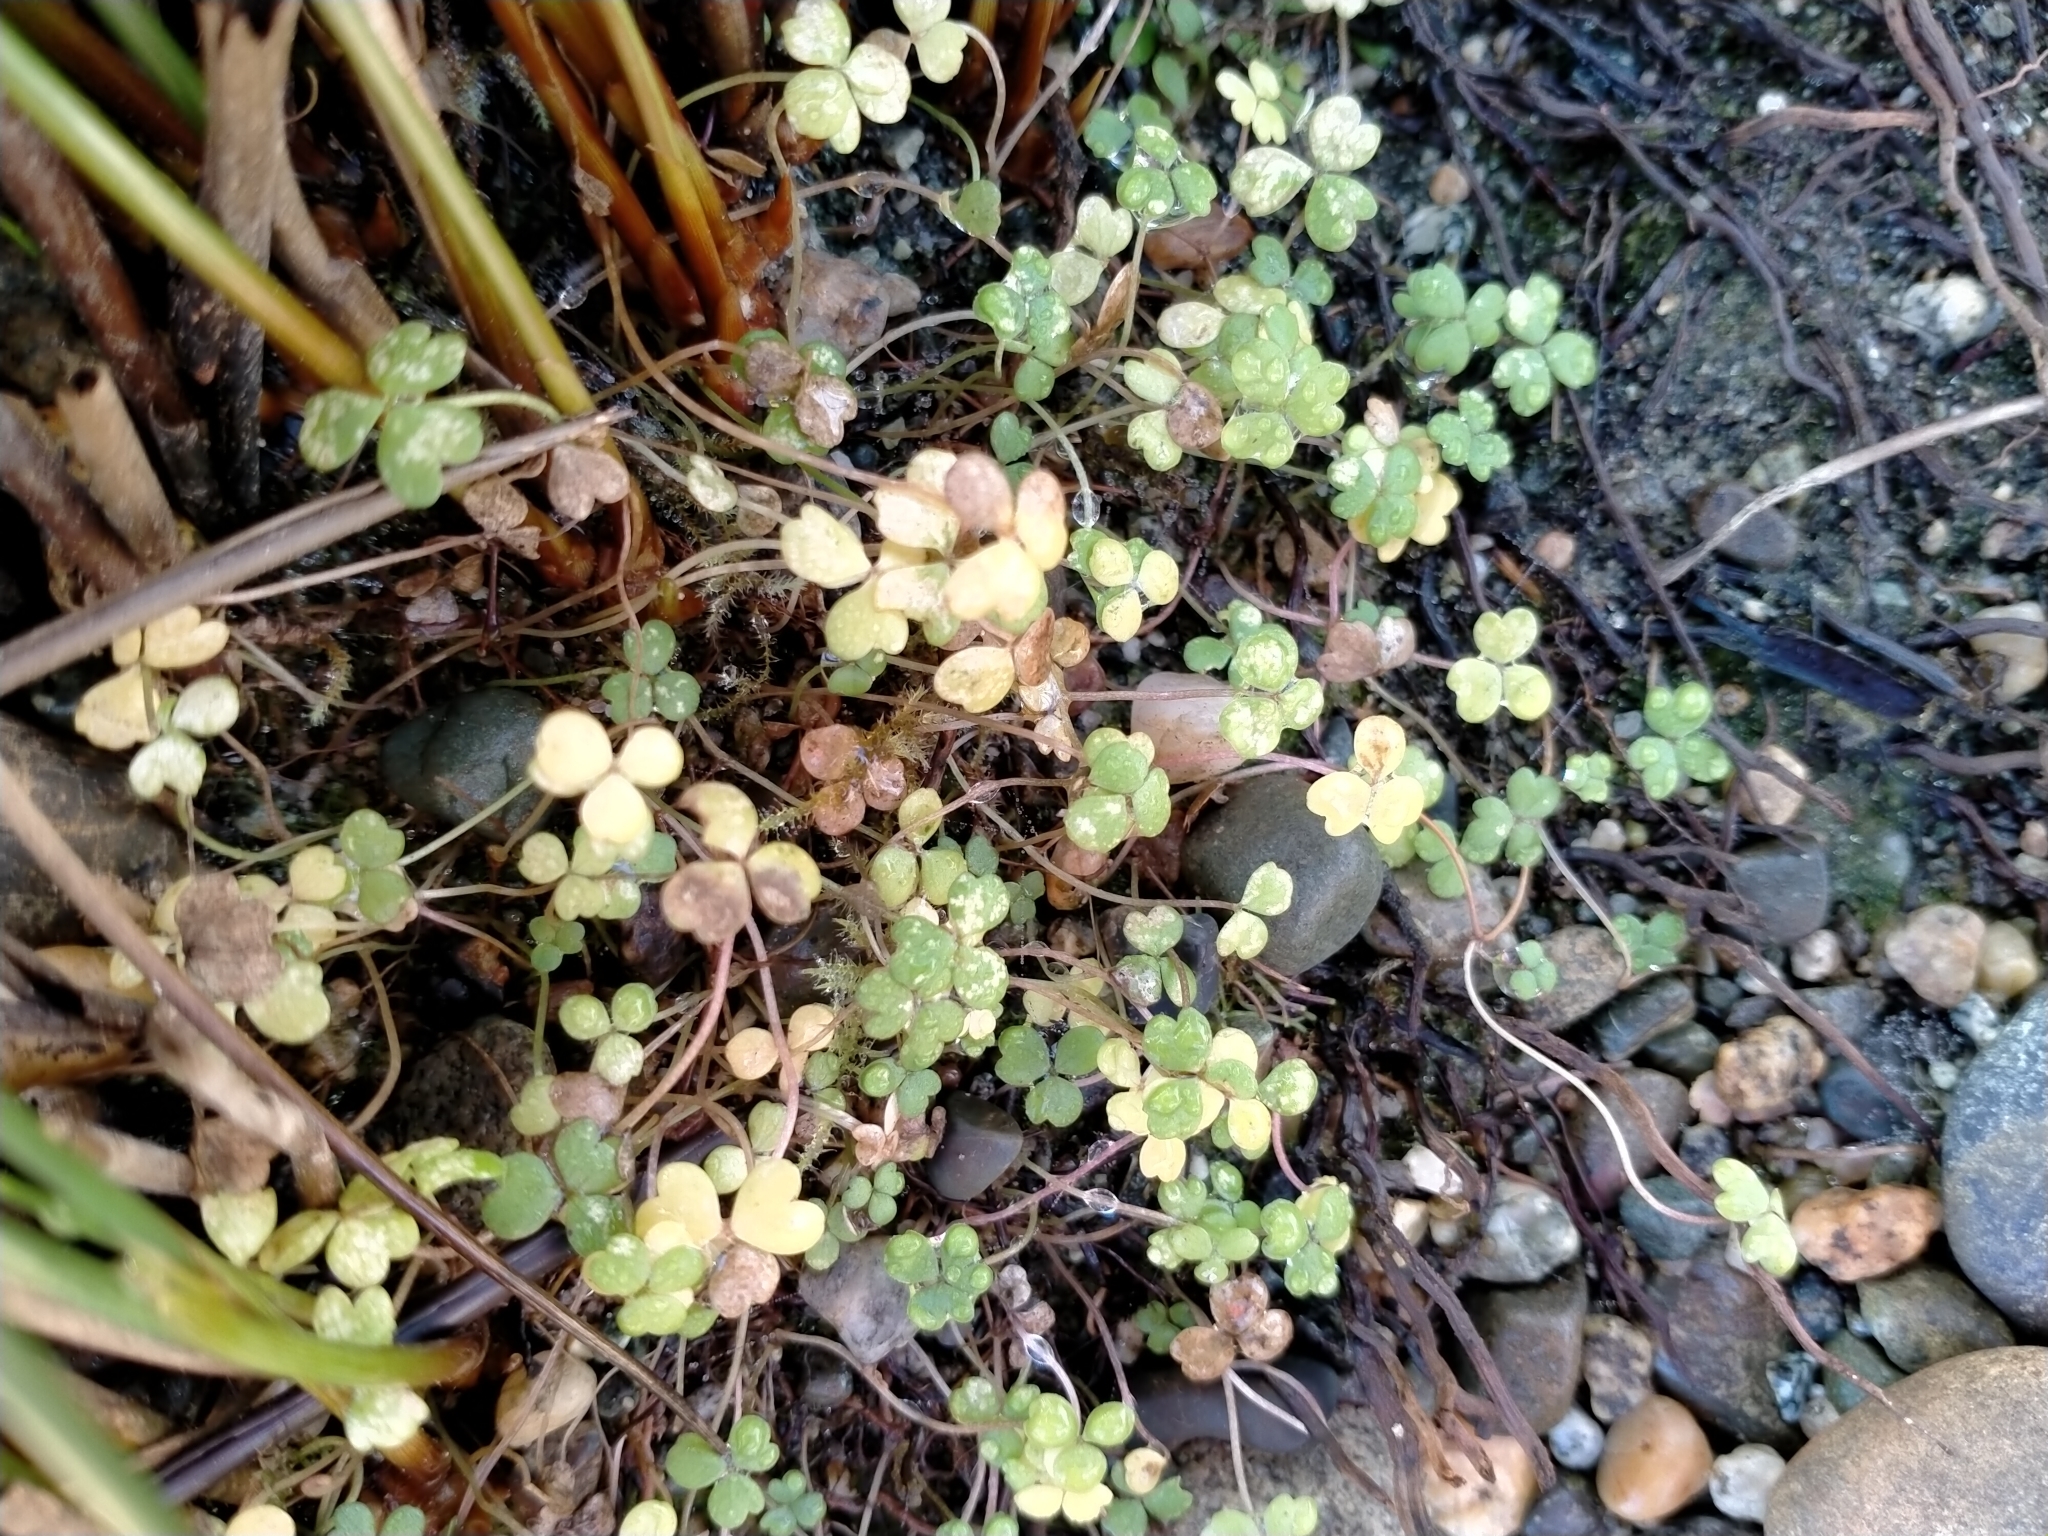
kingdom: Plantae
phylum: Tracheophyta
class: Magnoliopsida
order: Apiales
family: Araliaceae
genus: Hydrocotyle
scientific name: Hydrocotyle hydrophila
